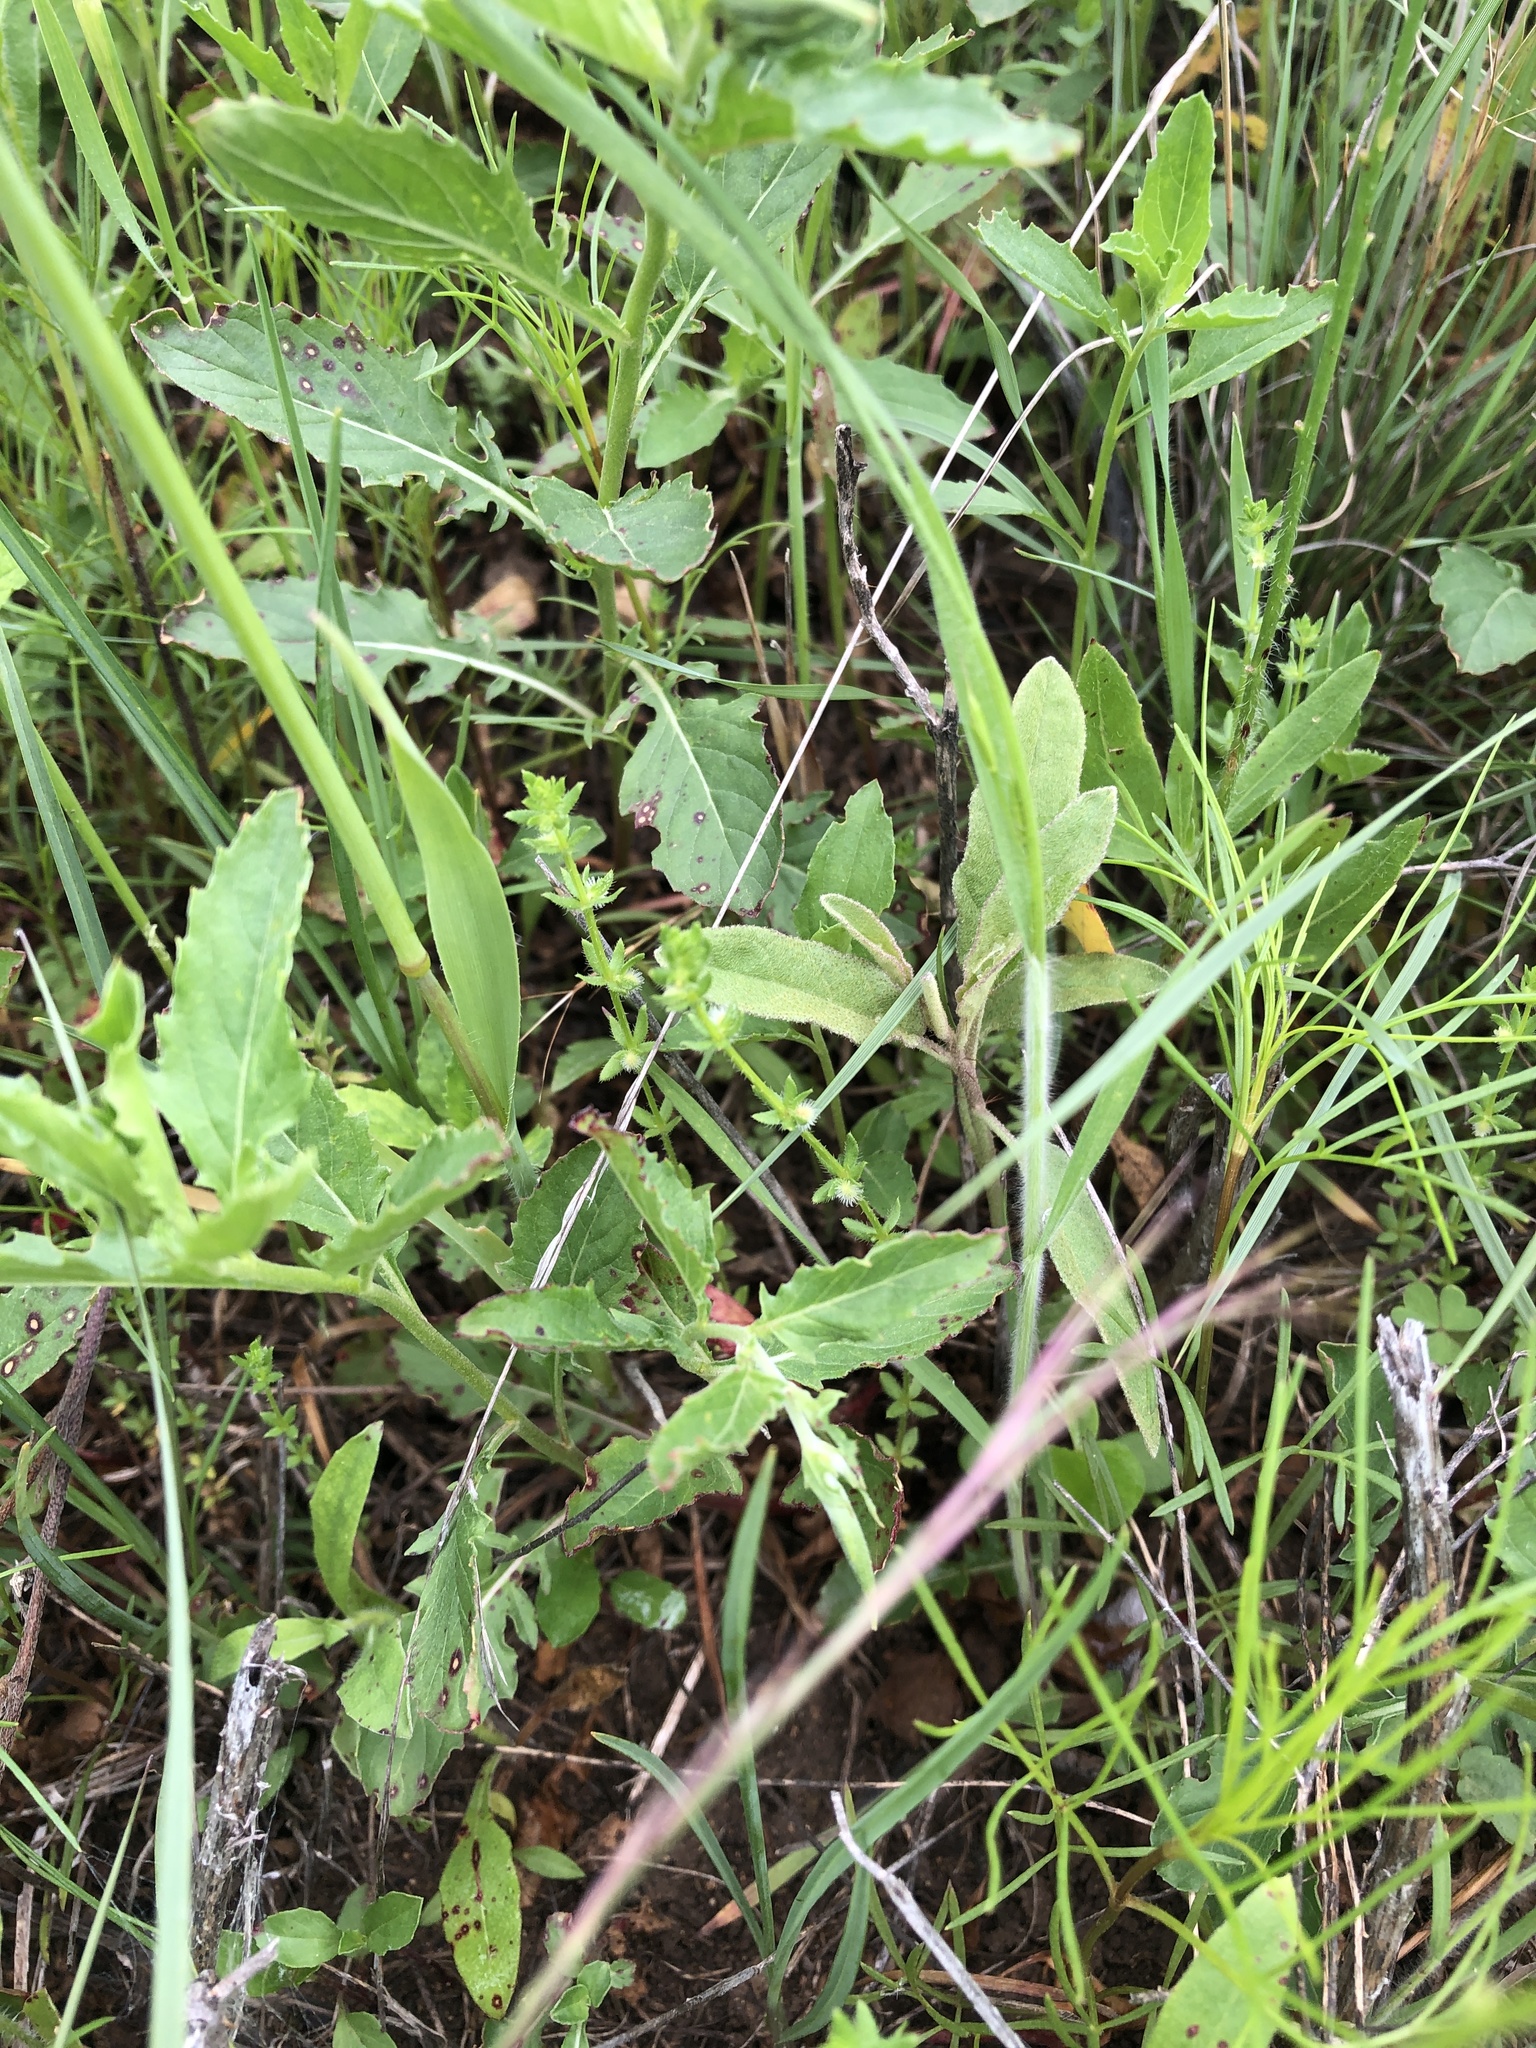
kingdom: Plantae
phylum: Tracheophyta
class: Magnoliopsida
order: Gentianales
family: Rubiaceae
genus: Galium
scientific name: Galium virgatum
